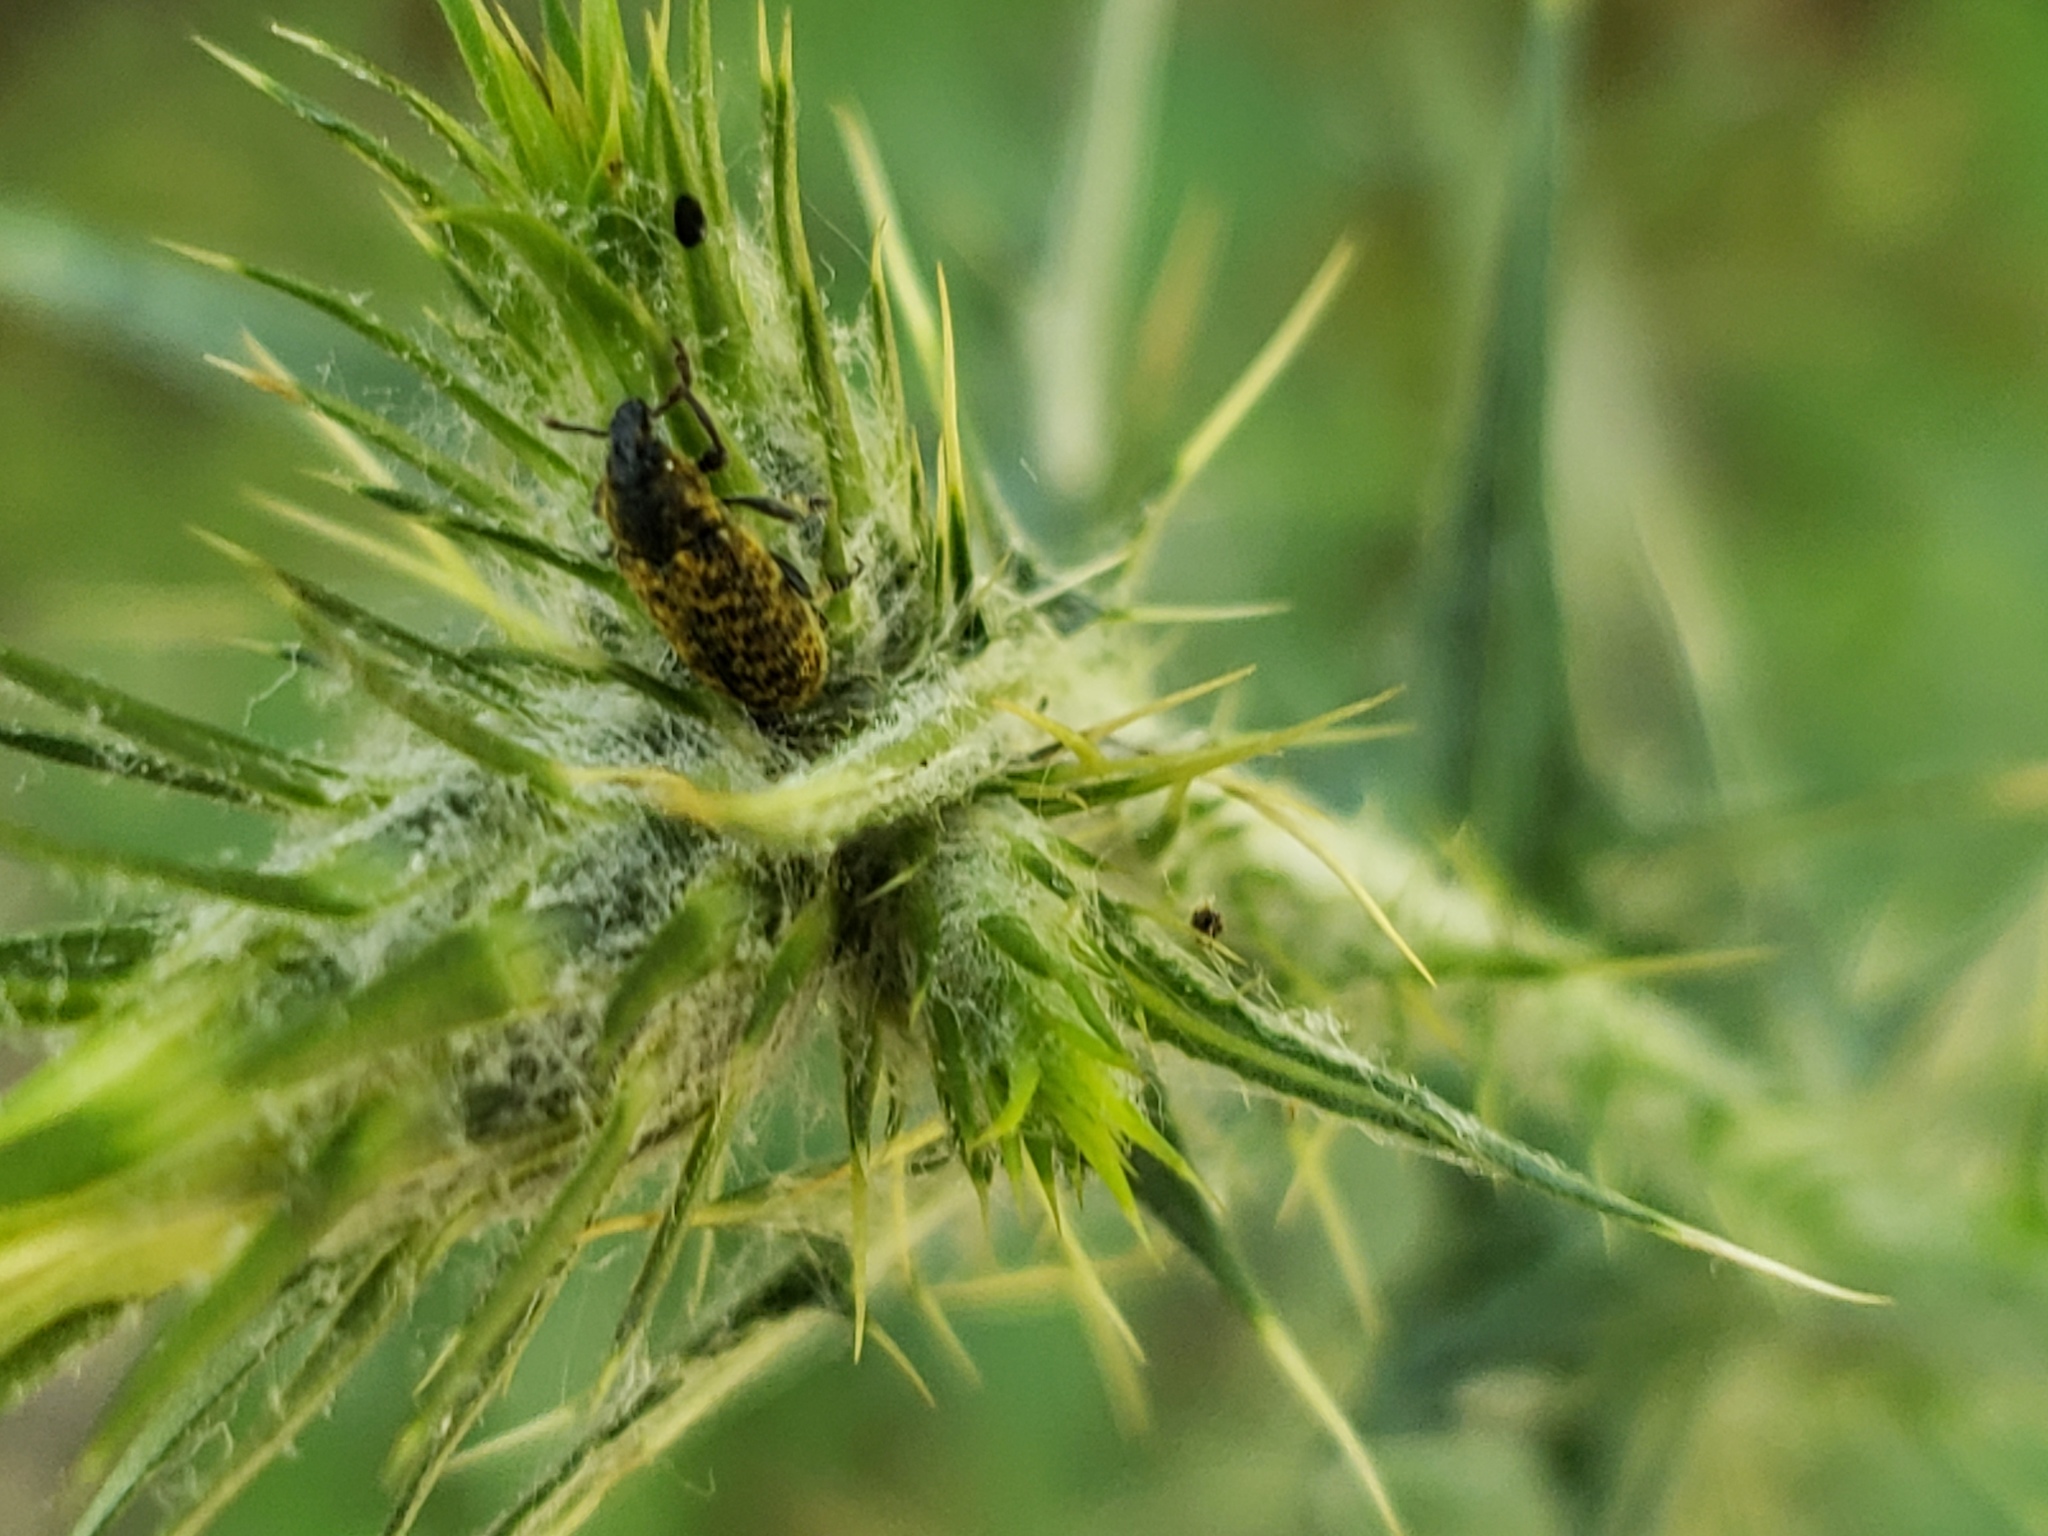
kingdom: Animalia
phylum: Arthropoda
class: Insecta
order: Coleoptera
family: Curculionidae
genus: Rhinocyllus
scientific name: Rhinocyllus conicus
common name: Weevil
